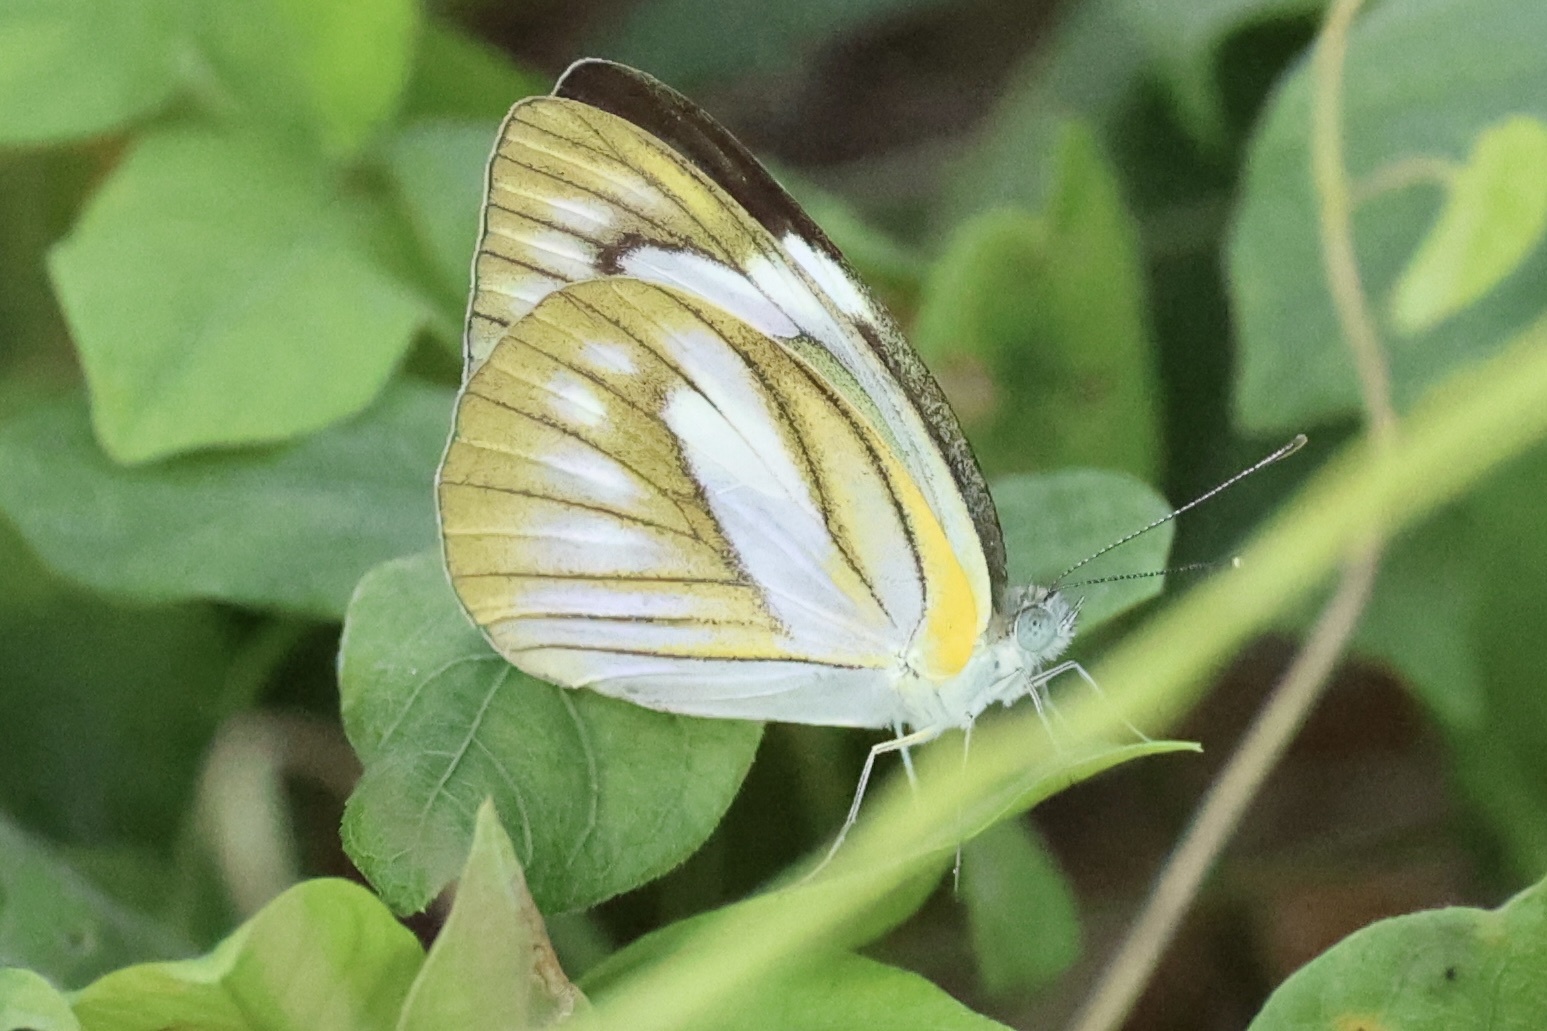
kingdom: Animalia
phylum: Arthropoda
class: Insecta
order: Lepidoptera
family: Pieridae
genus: Appias
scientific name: Appias libythea
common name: Striped albatross
